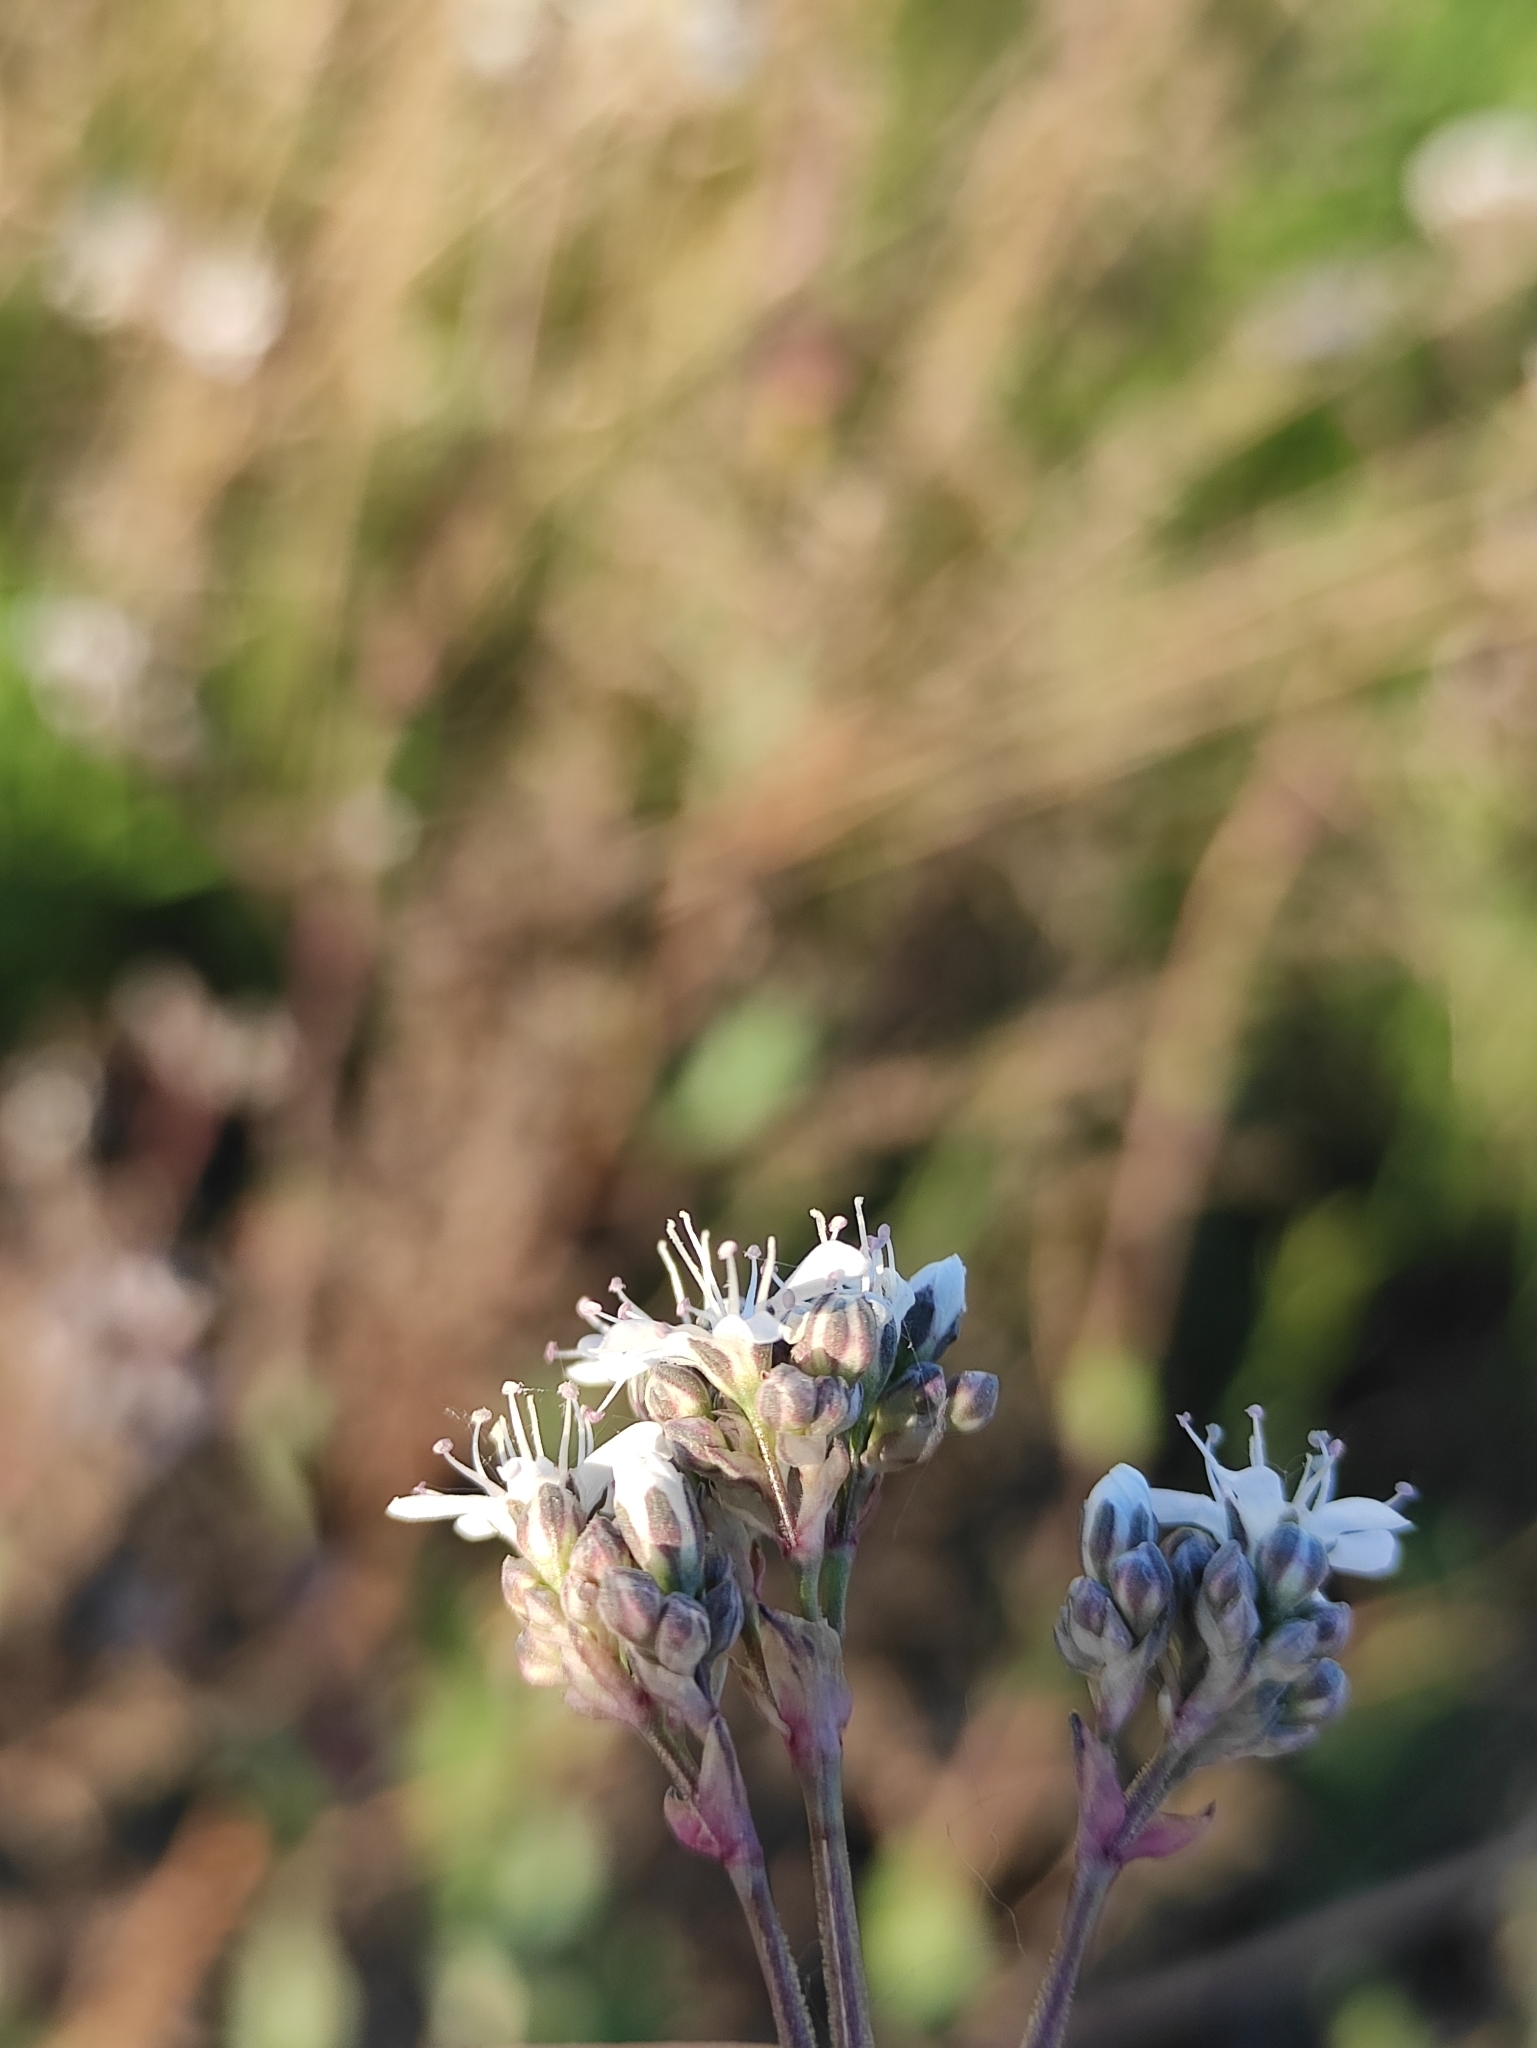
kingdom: Plantae
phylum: Tracheophyta
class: Magnoliopsida
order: Caryophyllales
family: Caryophyllaceae
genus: Gypsophila
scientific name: Gypsophila altissima
